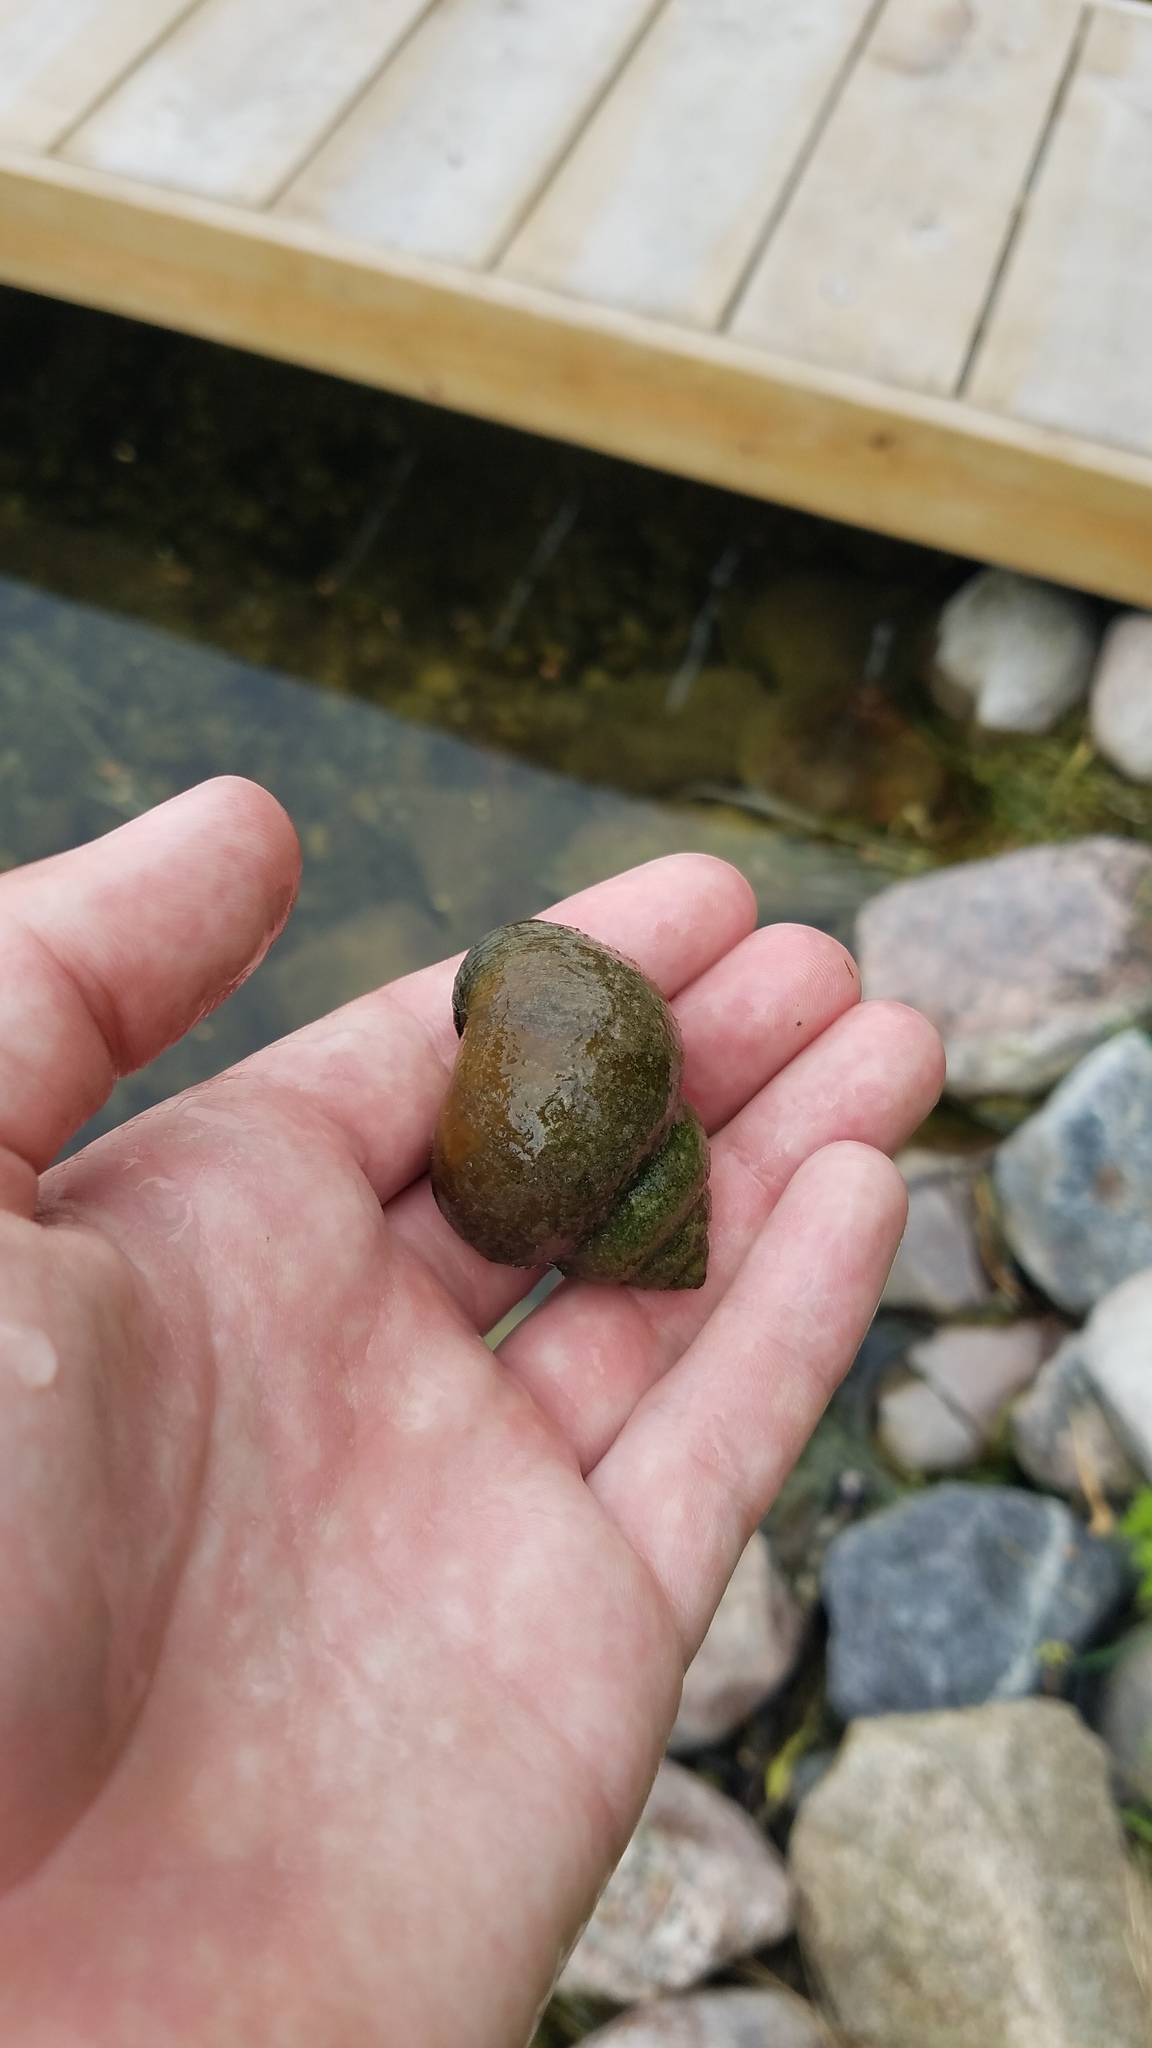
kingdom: Animalia
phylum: Mollusca
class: Gastropoda
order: Architaenioglossa
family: Viviparidae
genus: Cipangopaludina
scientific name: Cipangopaludina chinensis
